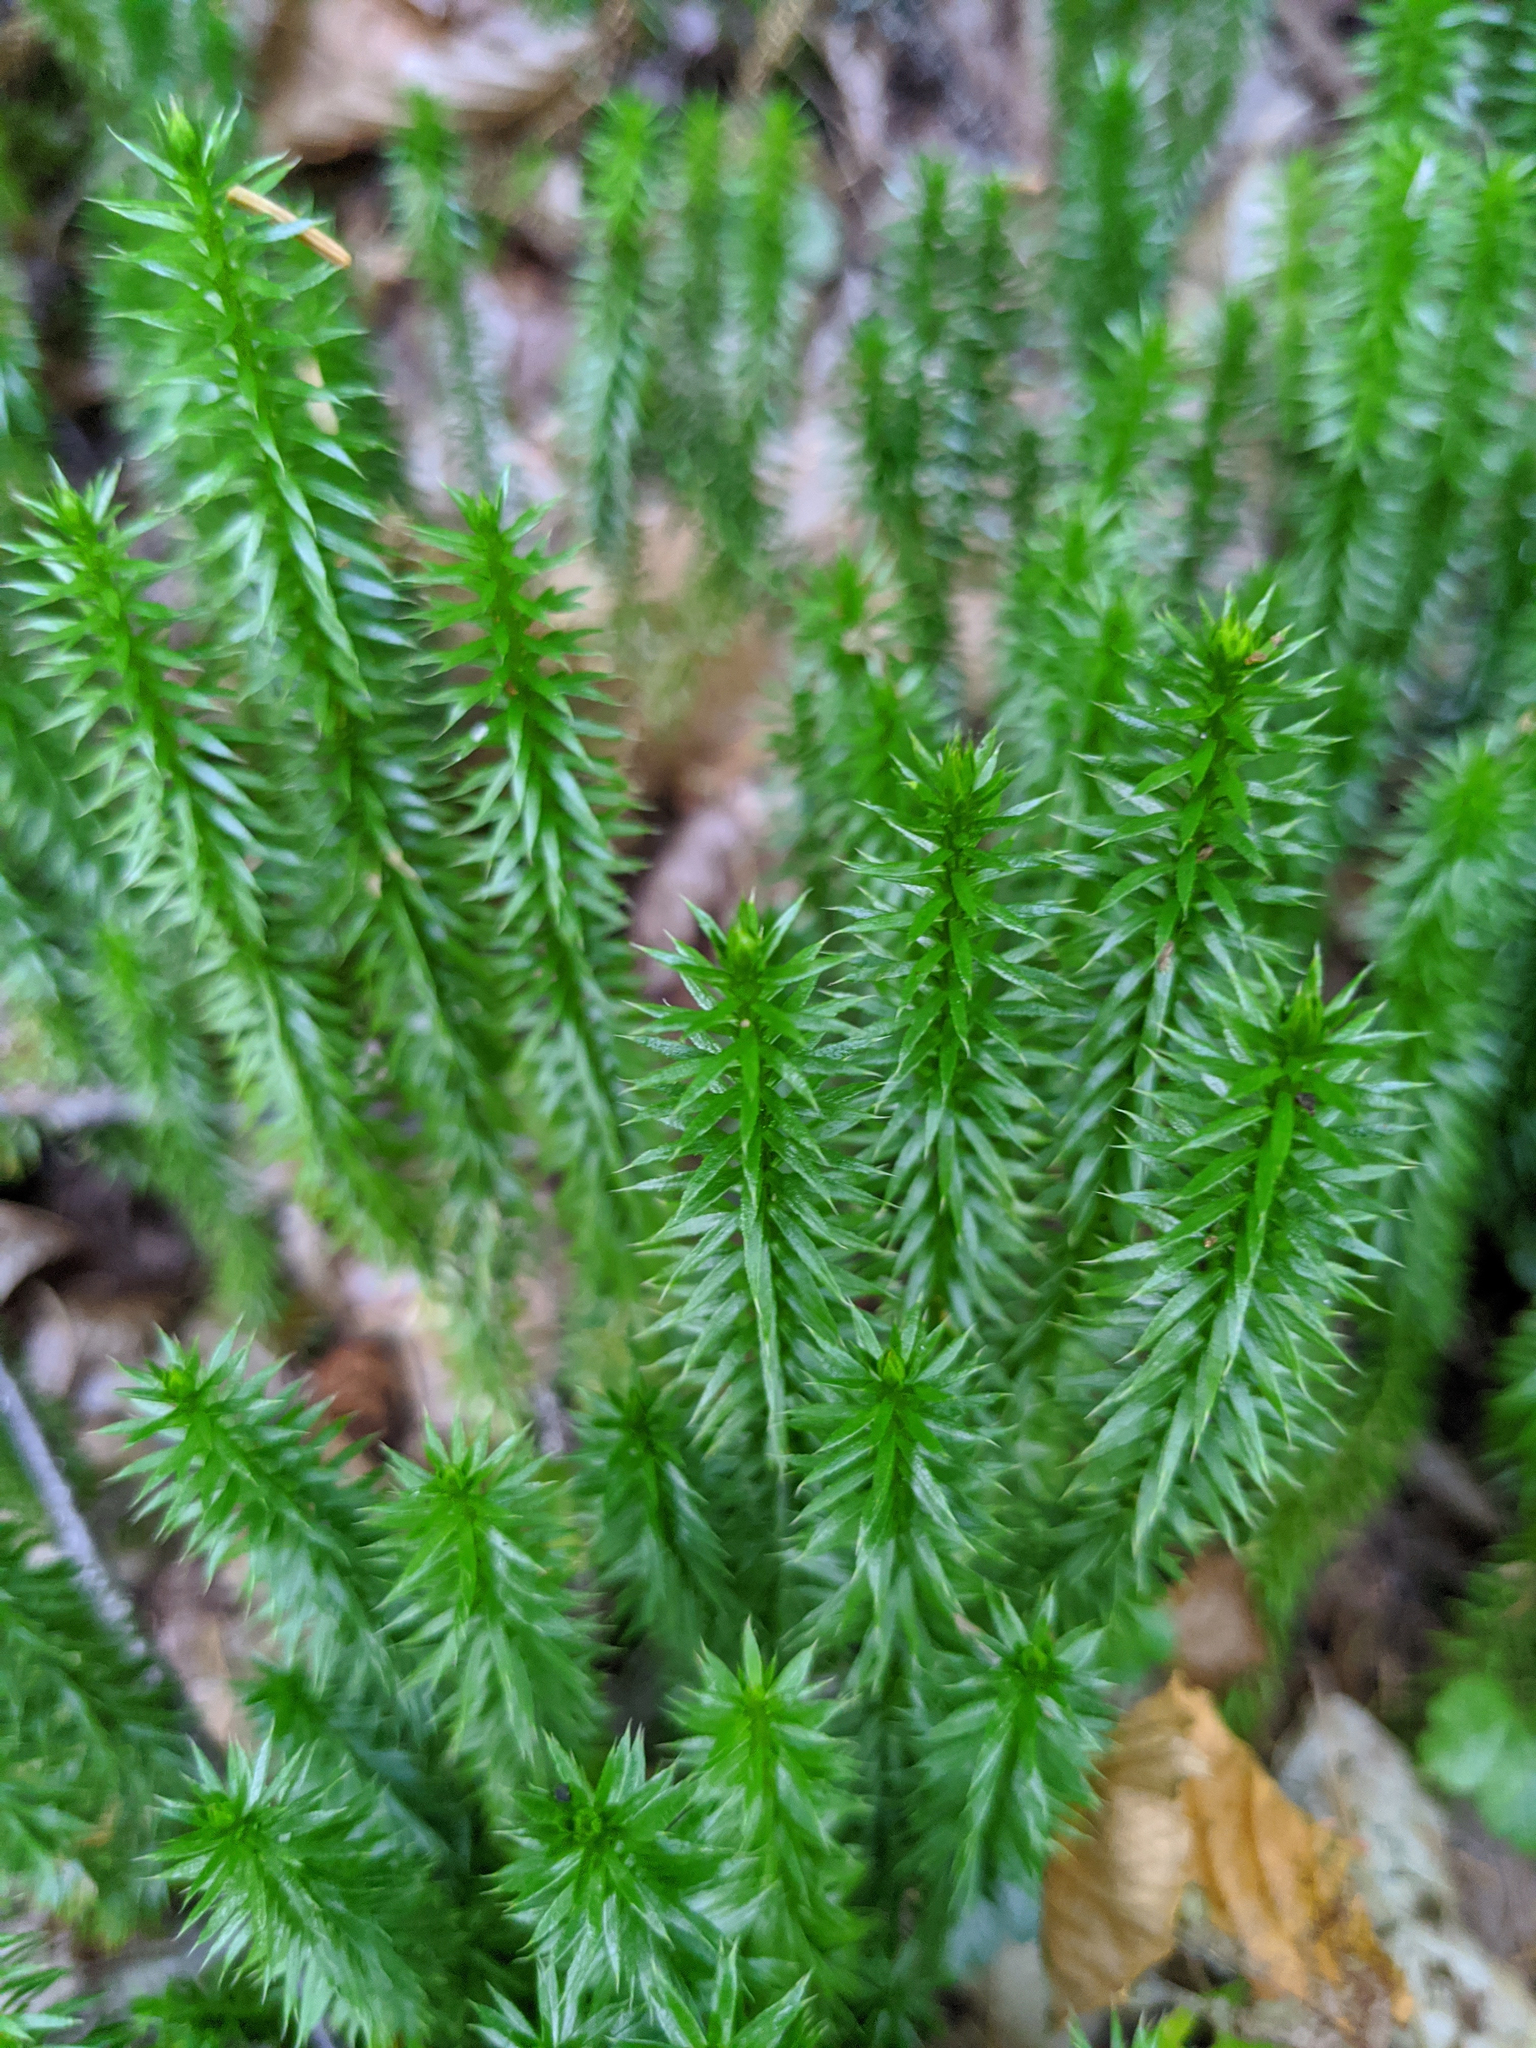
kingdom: Plantae
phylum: Tracheophyta
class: Lycopodiopsida
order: Lycopodiales
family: Lycopodiaceae
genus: Spinulum
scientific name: Spinulum annotinum
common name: Interrupted club-moss
